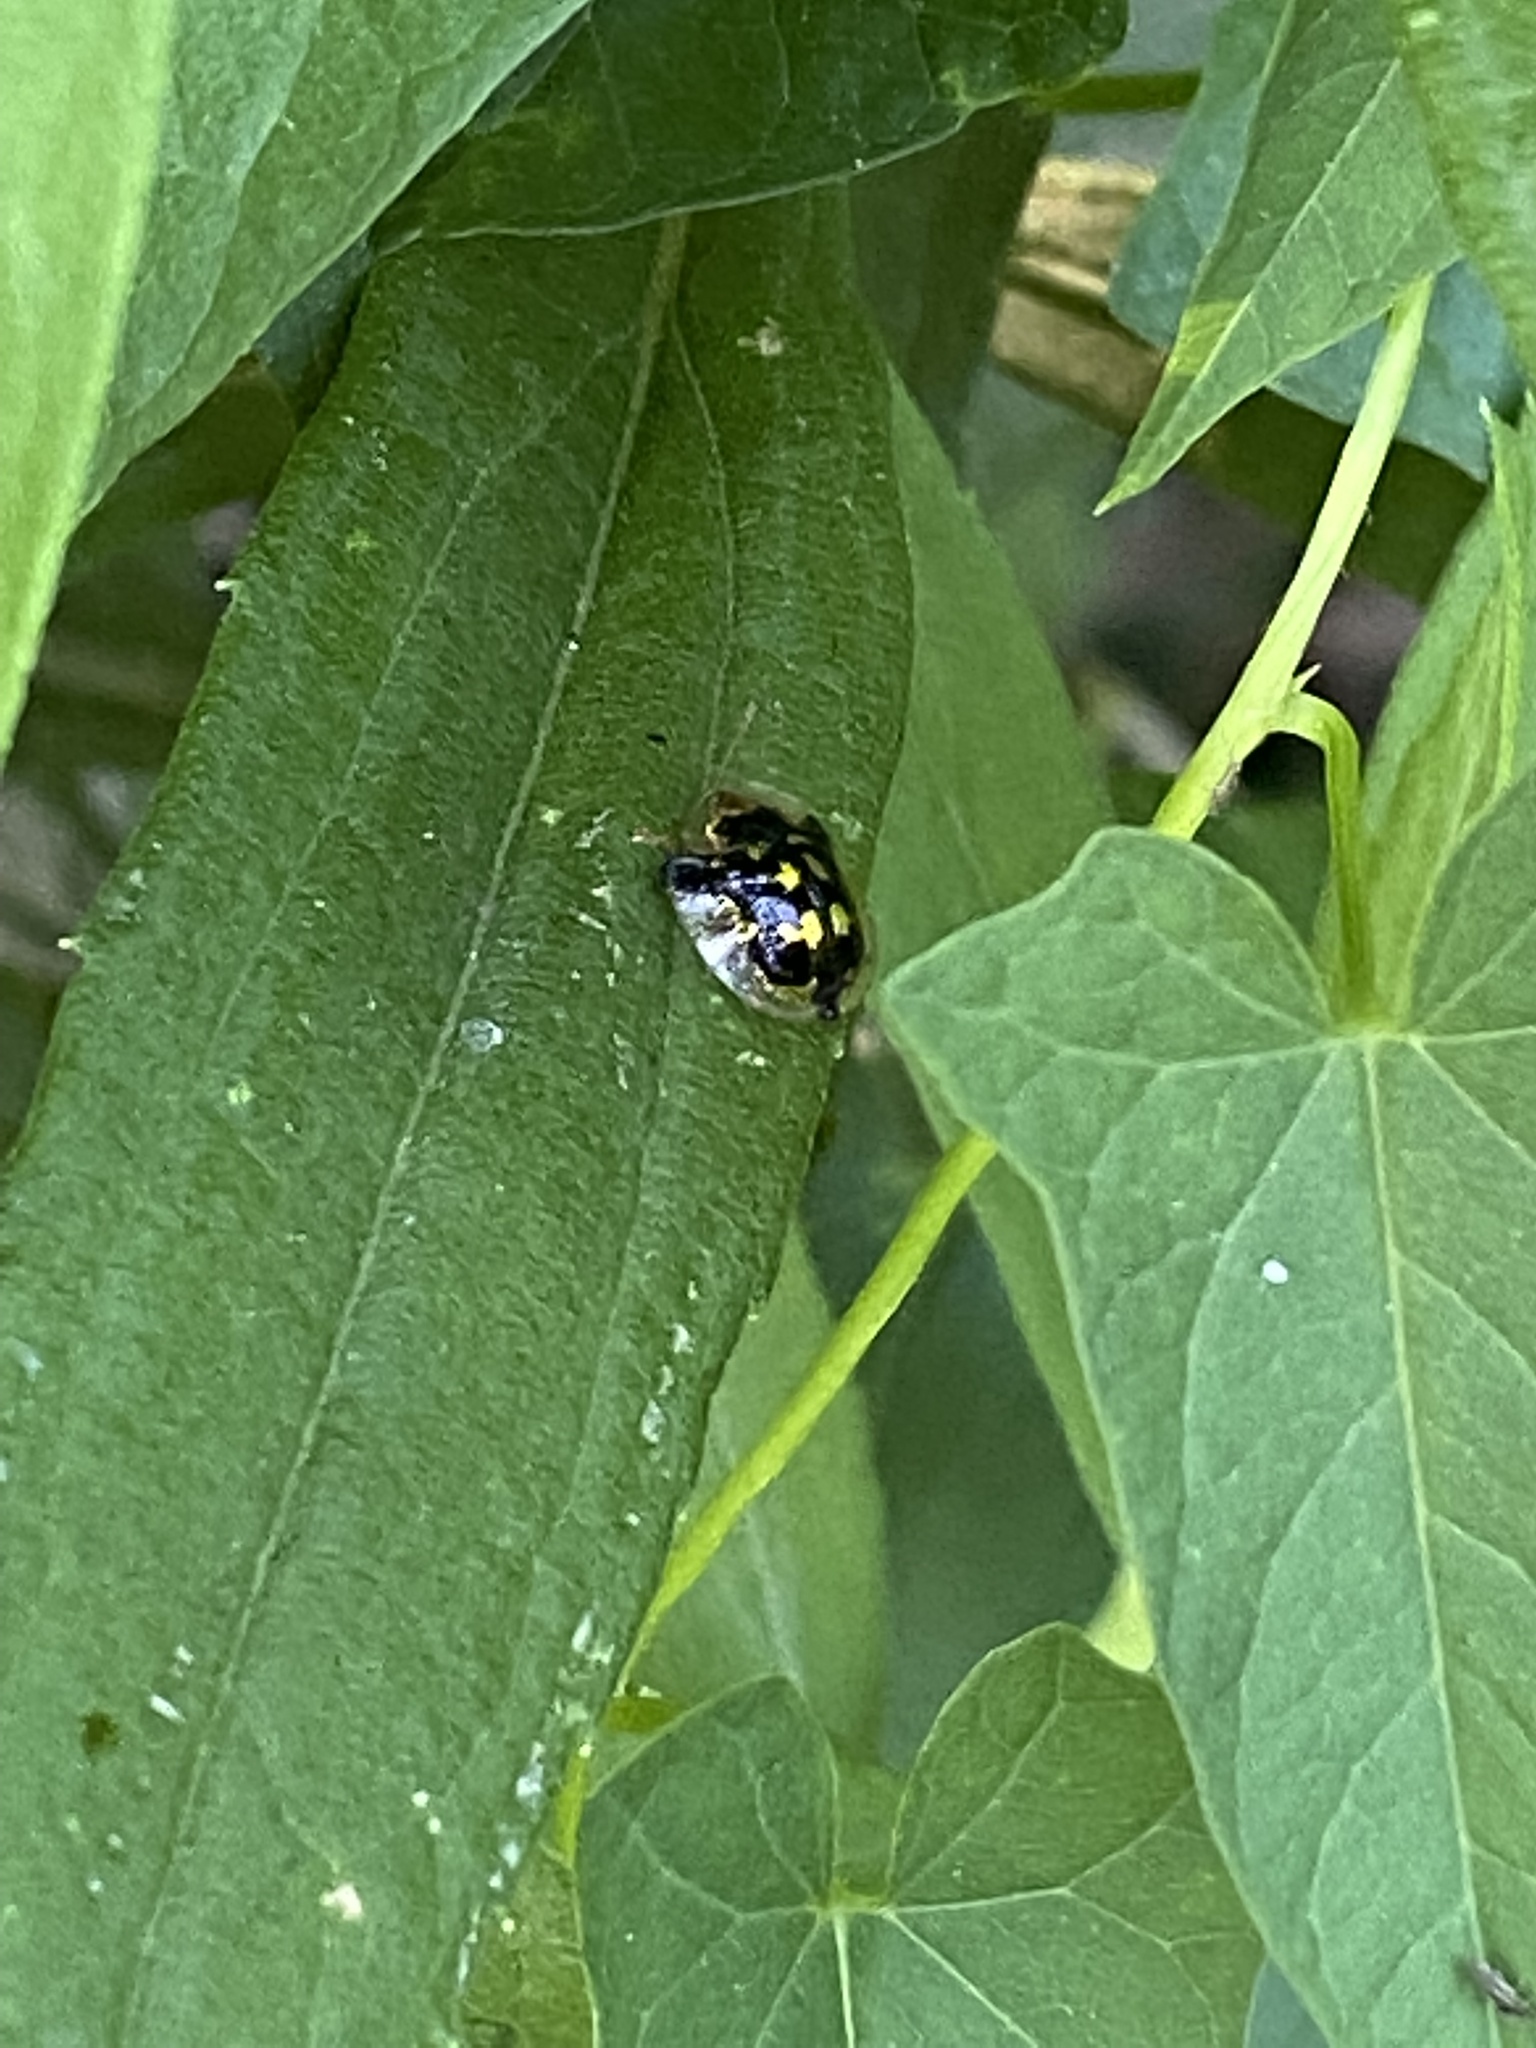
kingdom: Animalia
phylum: Arthropoda
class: Insecta
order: Coleoptera
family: Chrysomelidae
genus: Deloyala
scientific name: Deloyala guttata
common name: Mottled tortoise beetle
